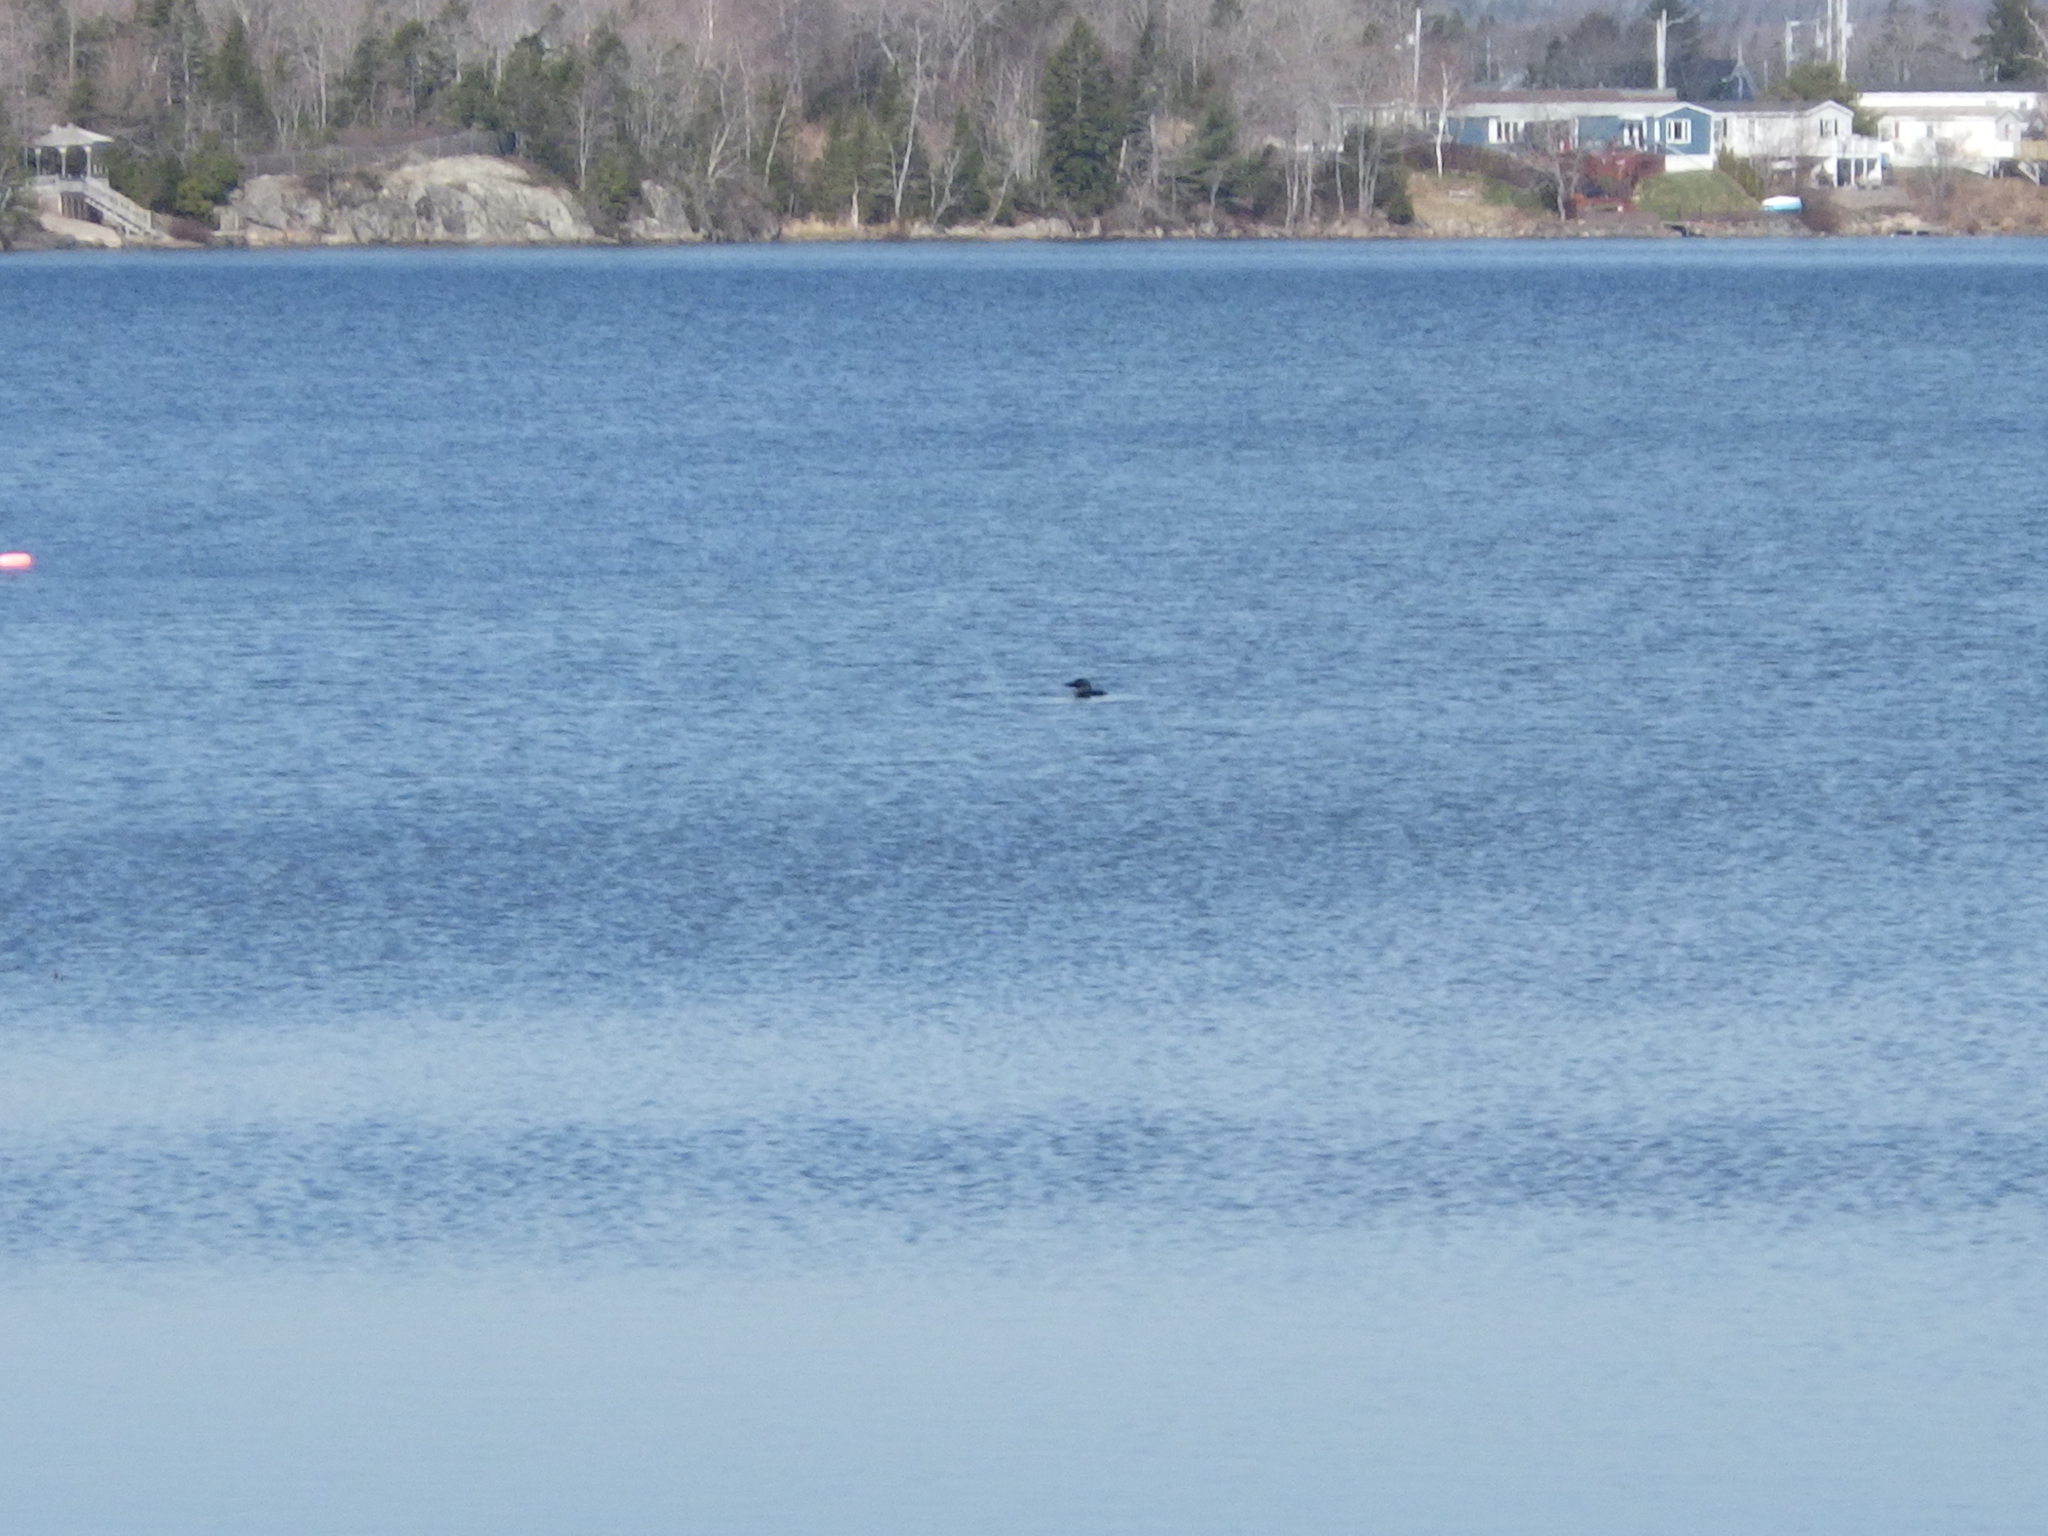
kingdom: Animalia
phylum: Chordata
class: Aves
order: Gaviiformes
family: Gaviidae
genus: Gavia
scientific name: Gavia immer
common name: Common loon
